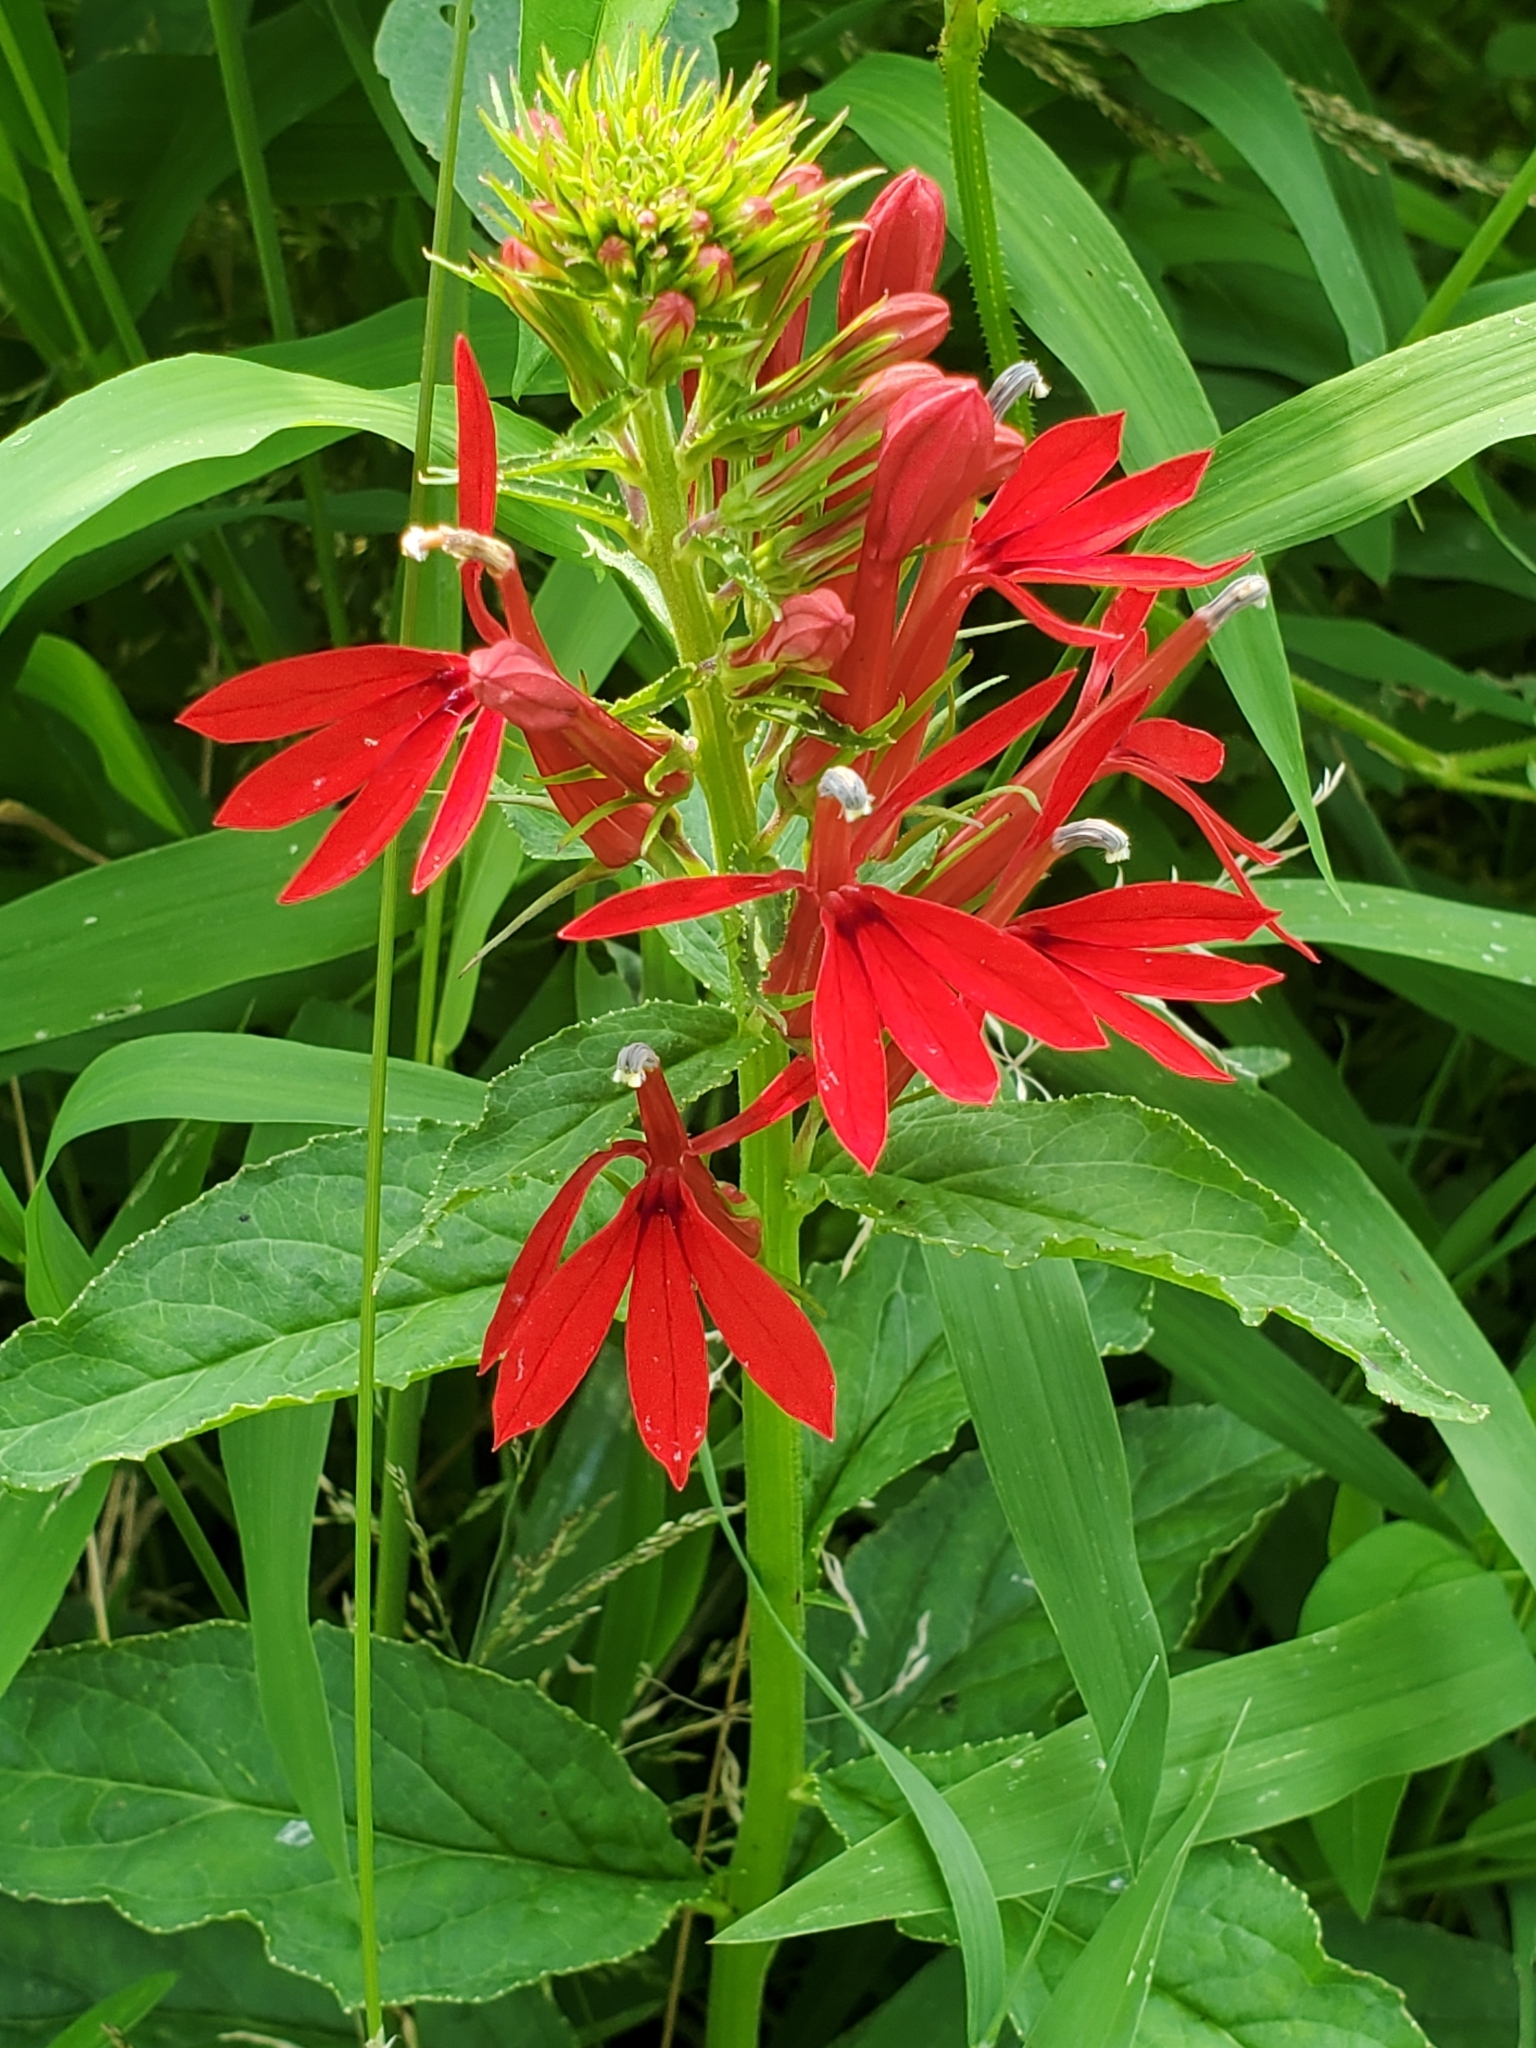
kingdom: Plantae
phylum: Tracheophyta
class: Magnoliopsida
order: Asterales
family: Campanulaceae
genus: Lobelia
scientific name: Lobelia cardinalis
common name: Cardinal flower
